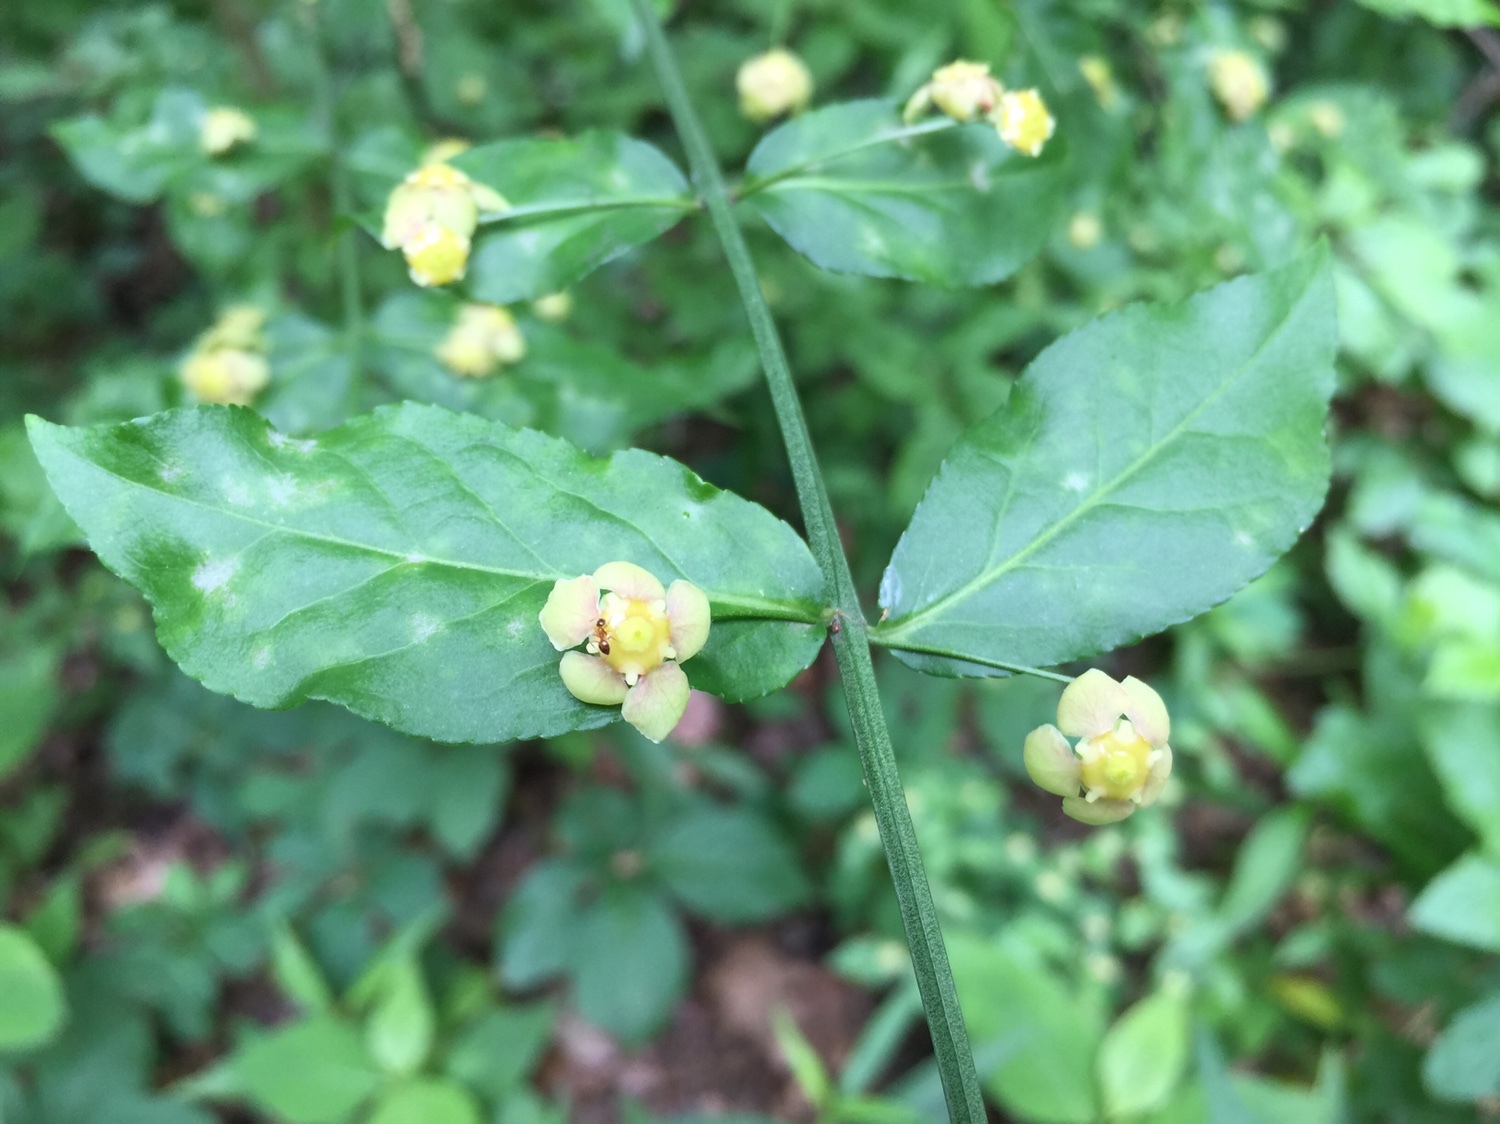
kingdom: Plantae
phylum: Tracheophyta
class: Magnoliopsida
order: Celastrales
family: Celastraceae
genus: Euonymus
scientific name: Euonymus americanus
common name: Bursting-heart
